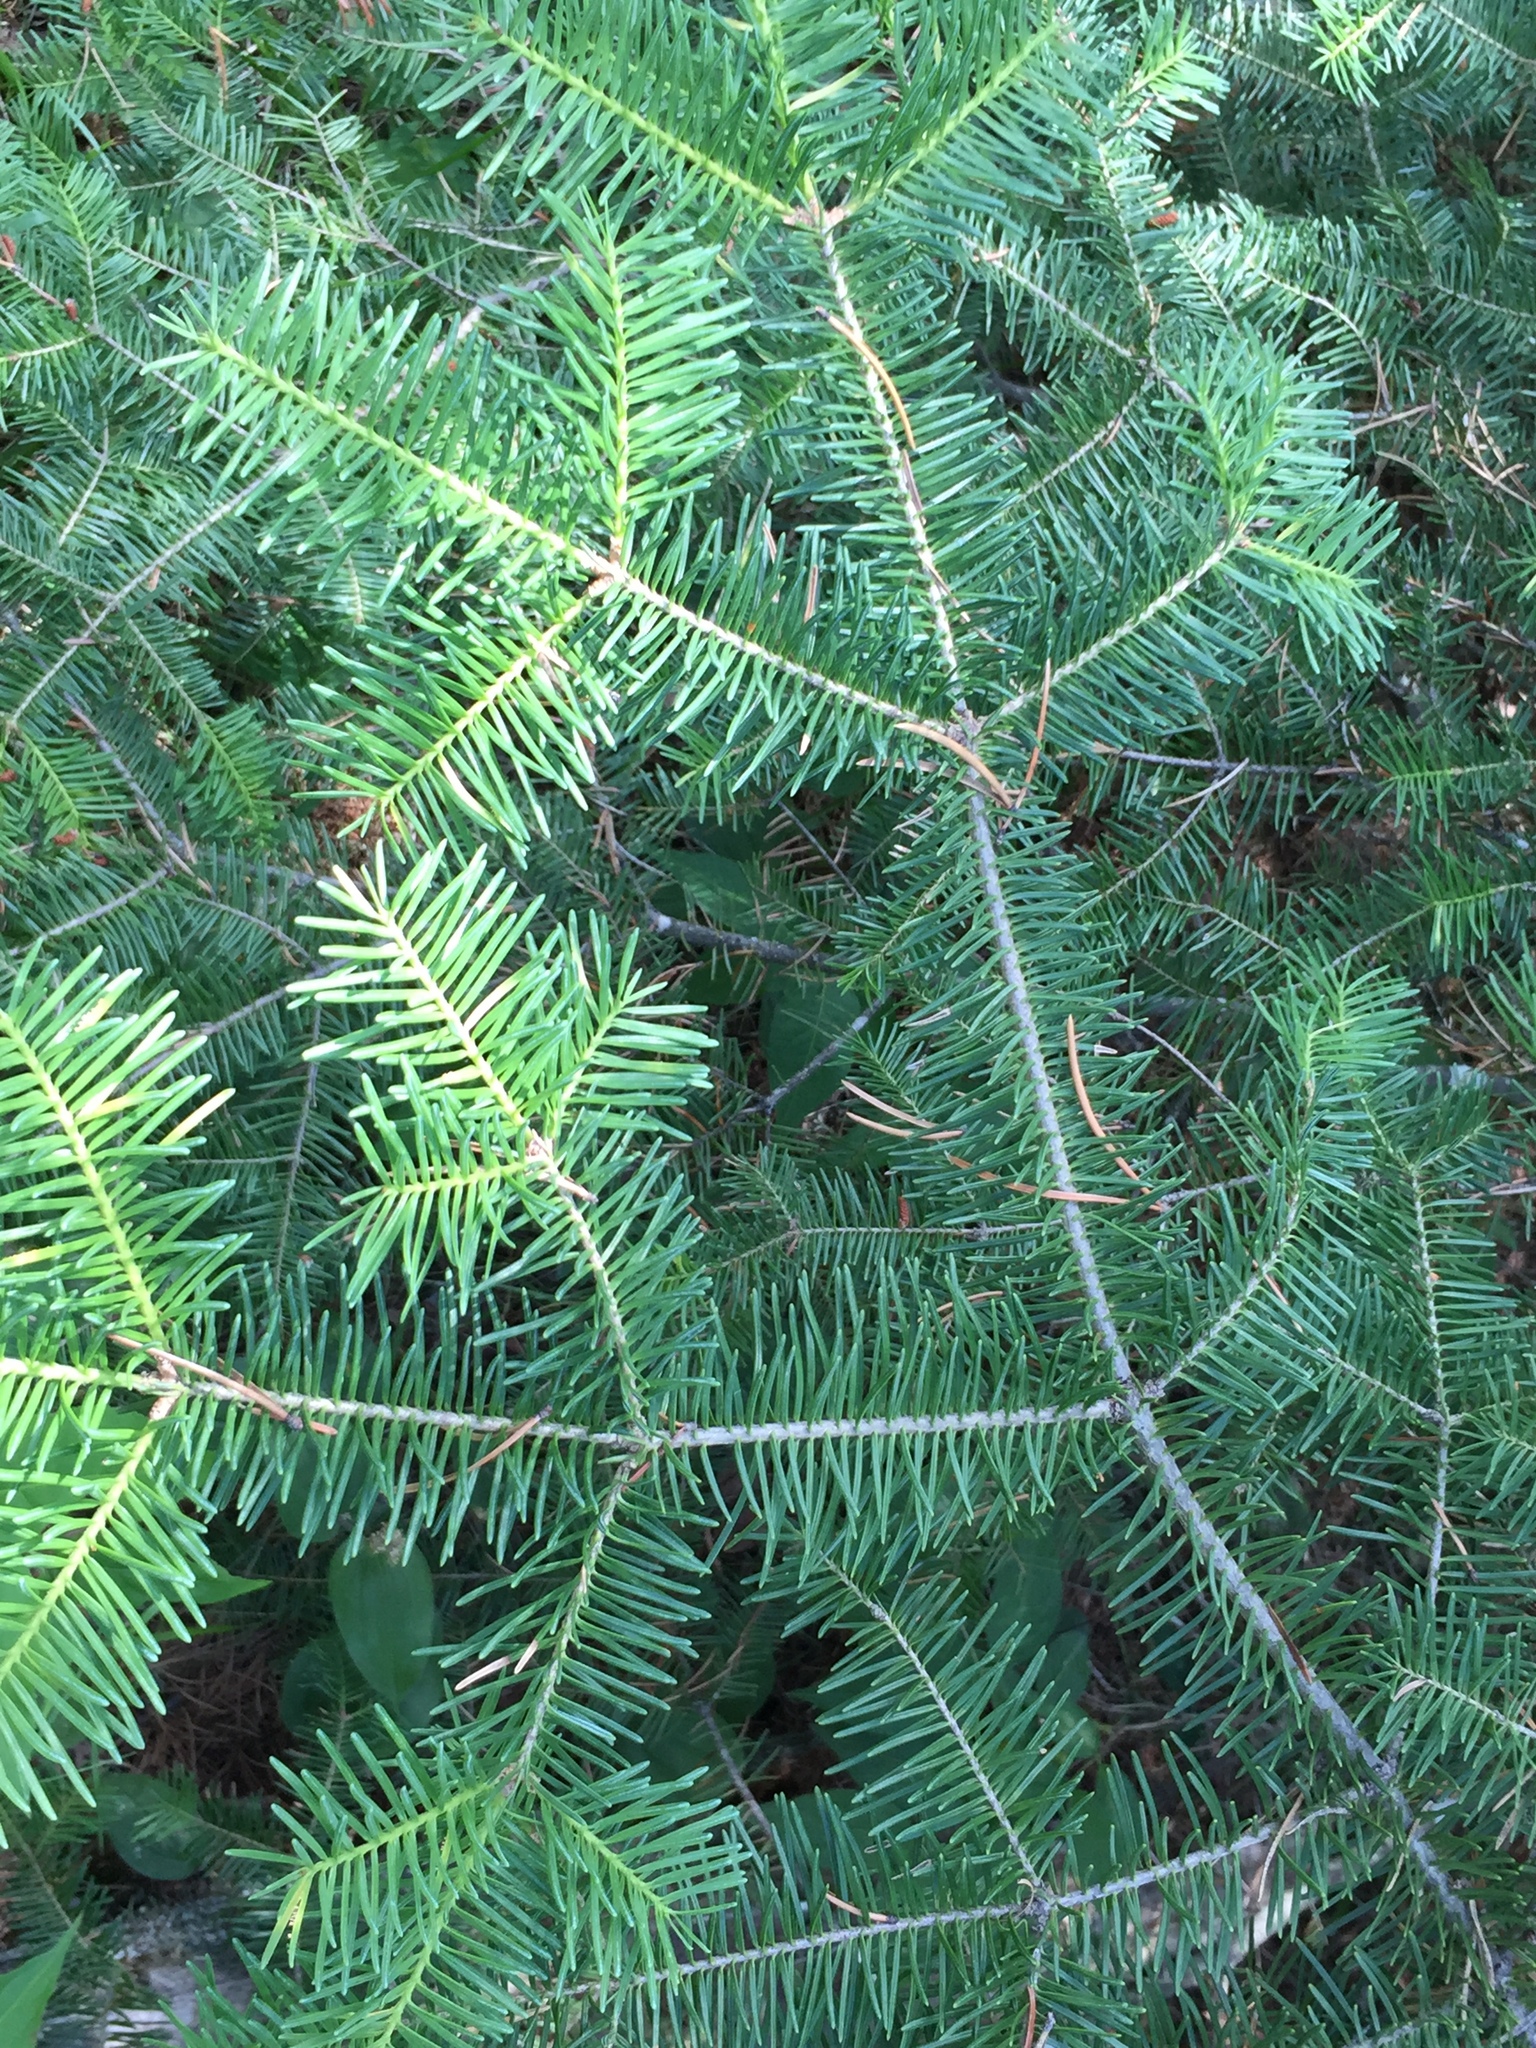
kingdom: Plantae
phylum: Tracheophyta
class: Pinopsida
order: Pinales
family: Pinaceae
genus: Abies
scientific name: Abies balsamea
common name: Balsam fir
